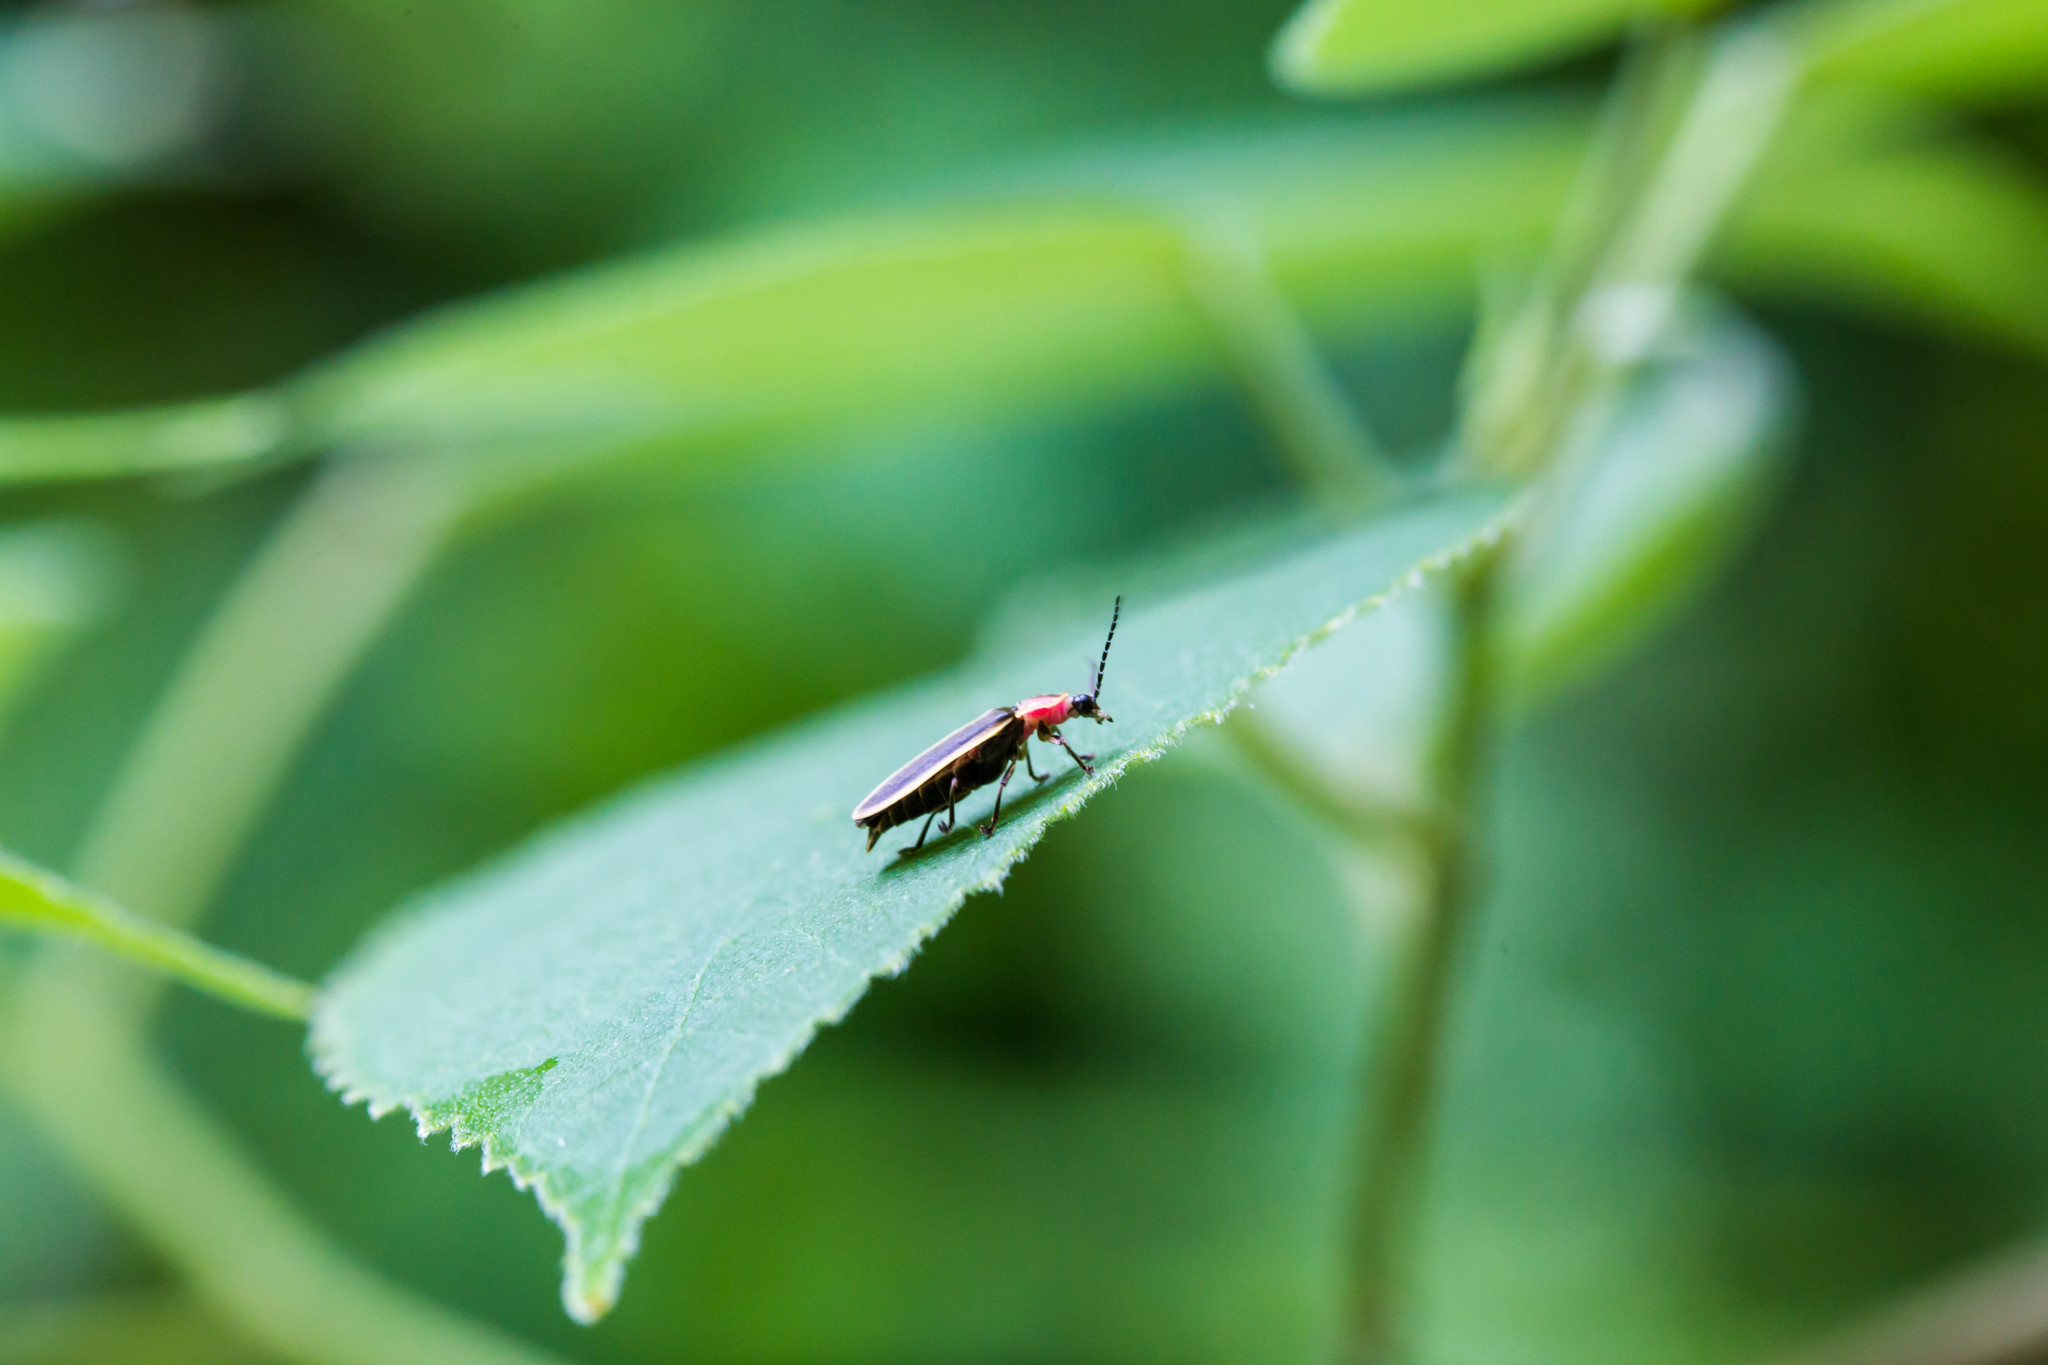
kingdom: Animalia
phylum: Arthropoda
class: Insecta
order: Coleoptera
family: Lampyridae
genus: Photinus
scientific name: Photinus pyralis
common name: Big dipper firefly
